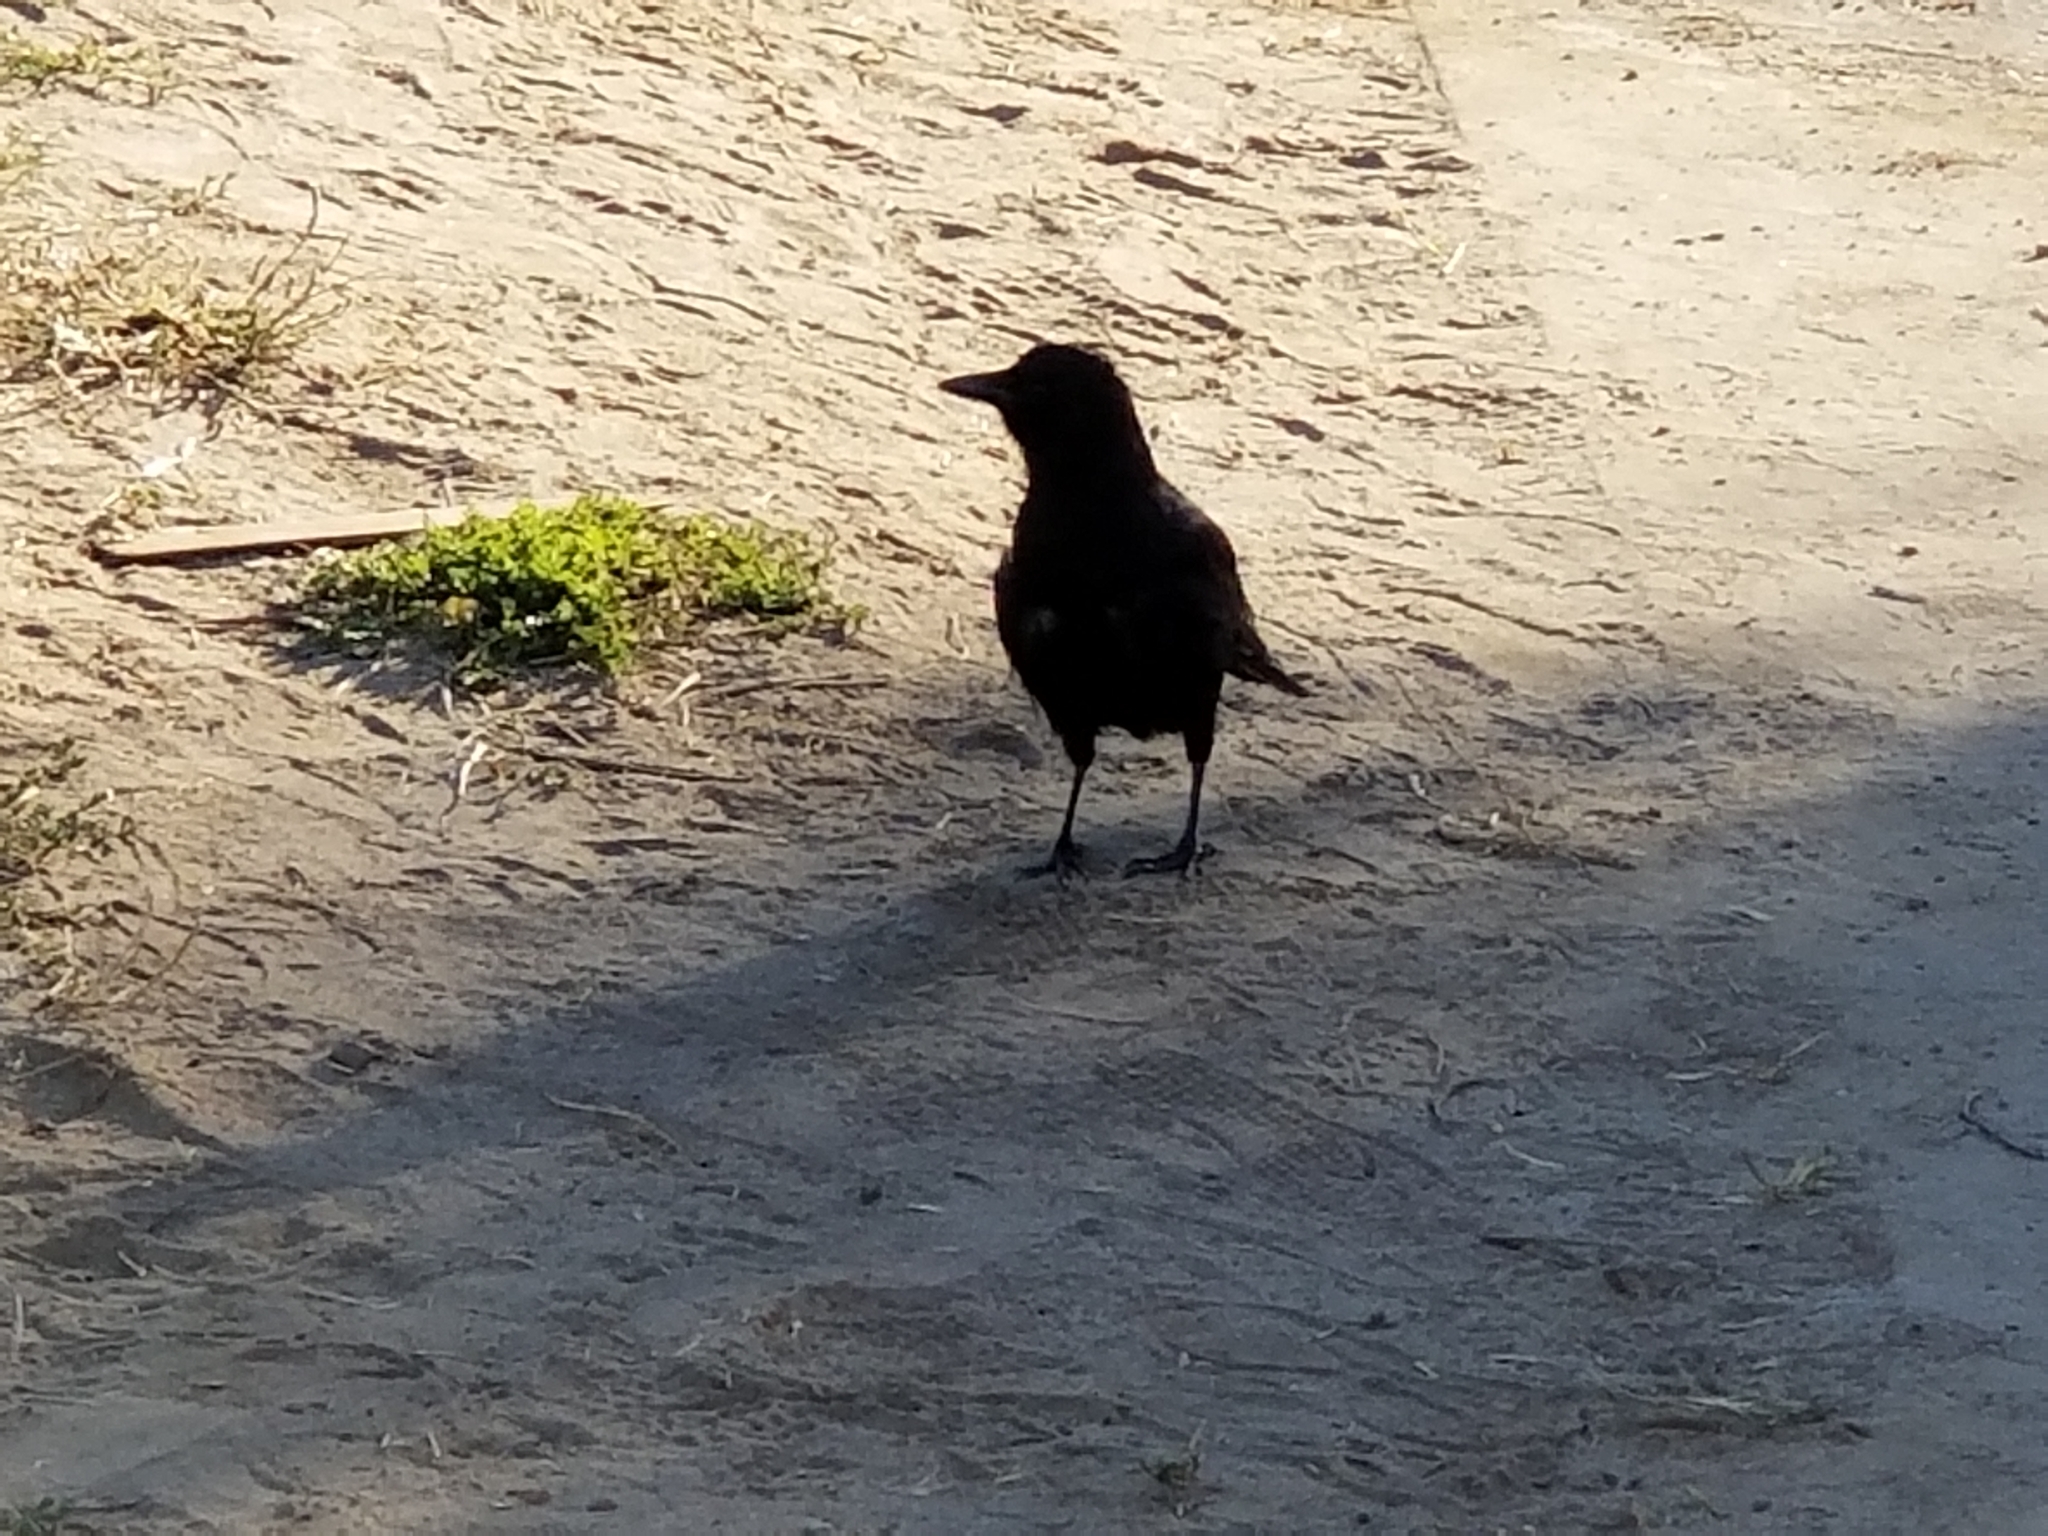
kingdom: Animalia
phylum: Chordata
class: Aves
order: Passeriformes
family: Corvidae
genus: Corvus
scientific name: Corvus brachyrhynchos
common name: American crow
